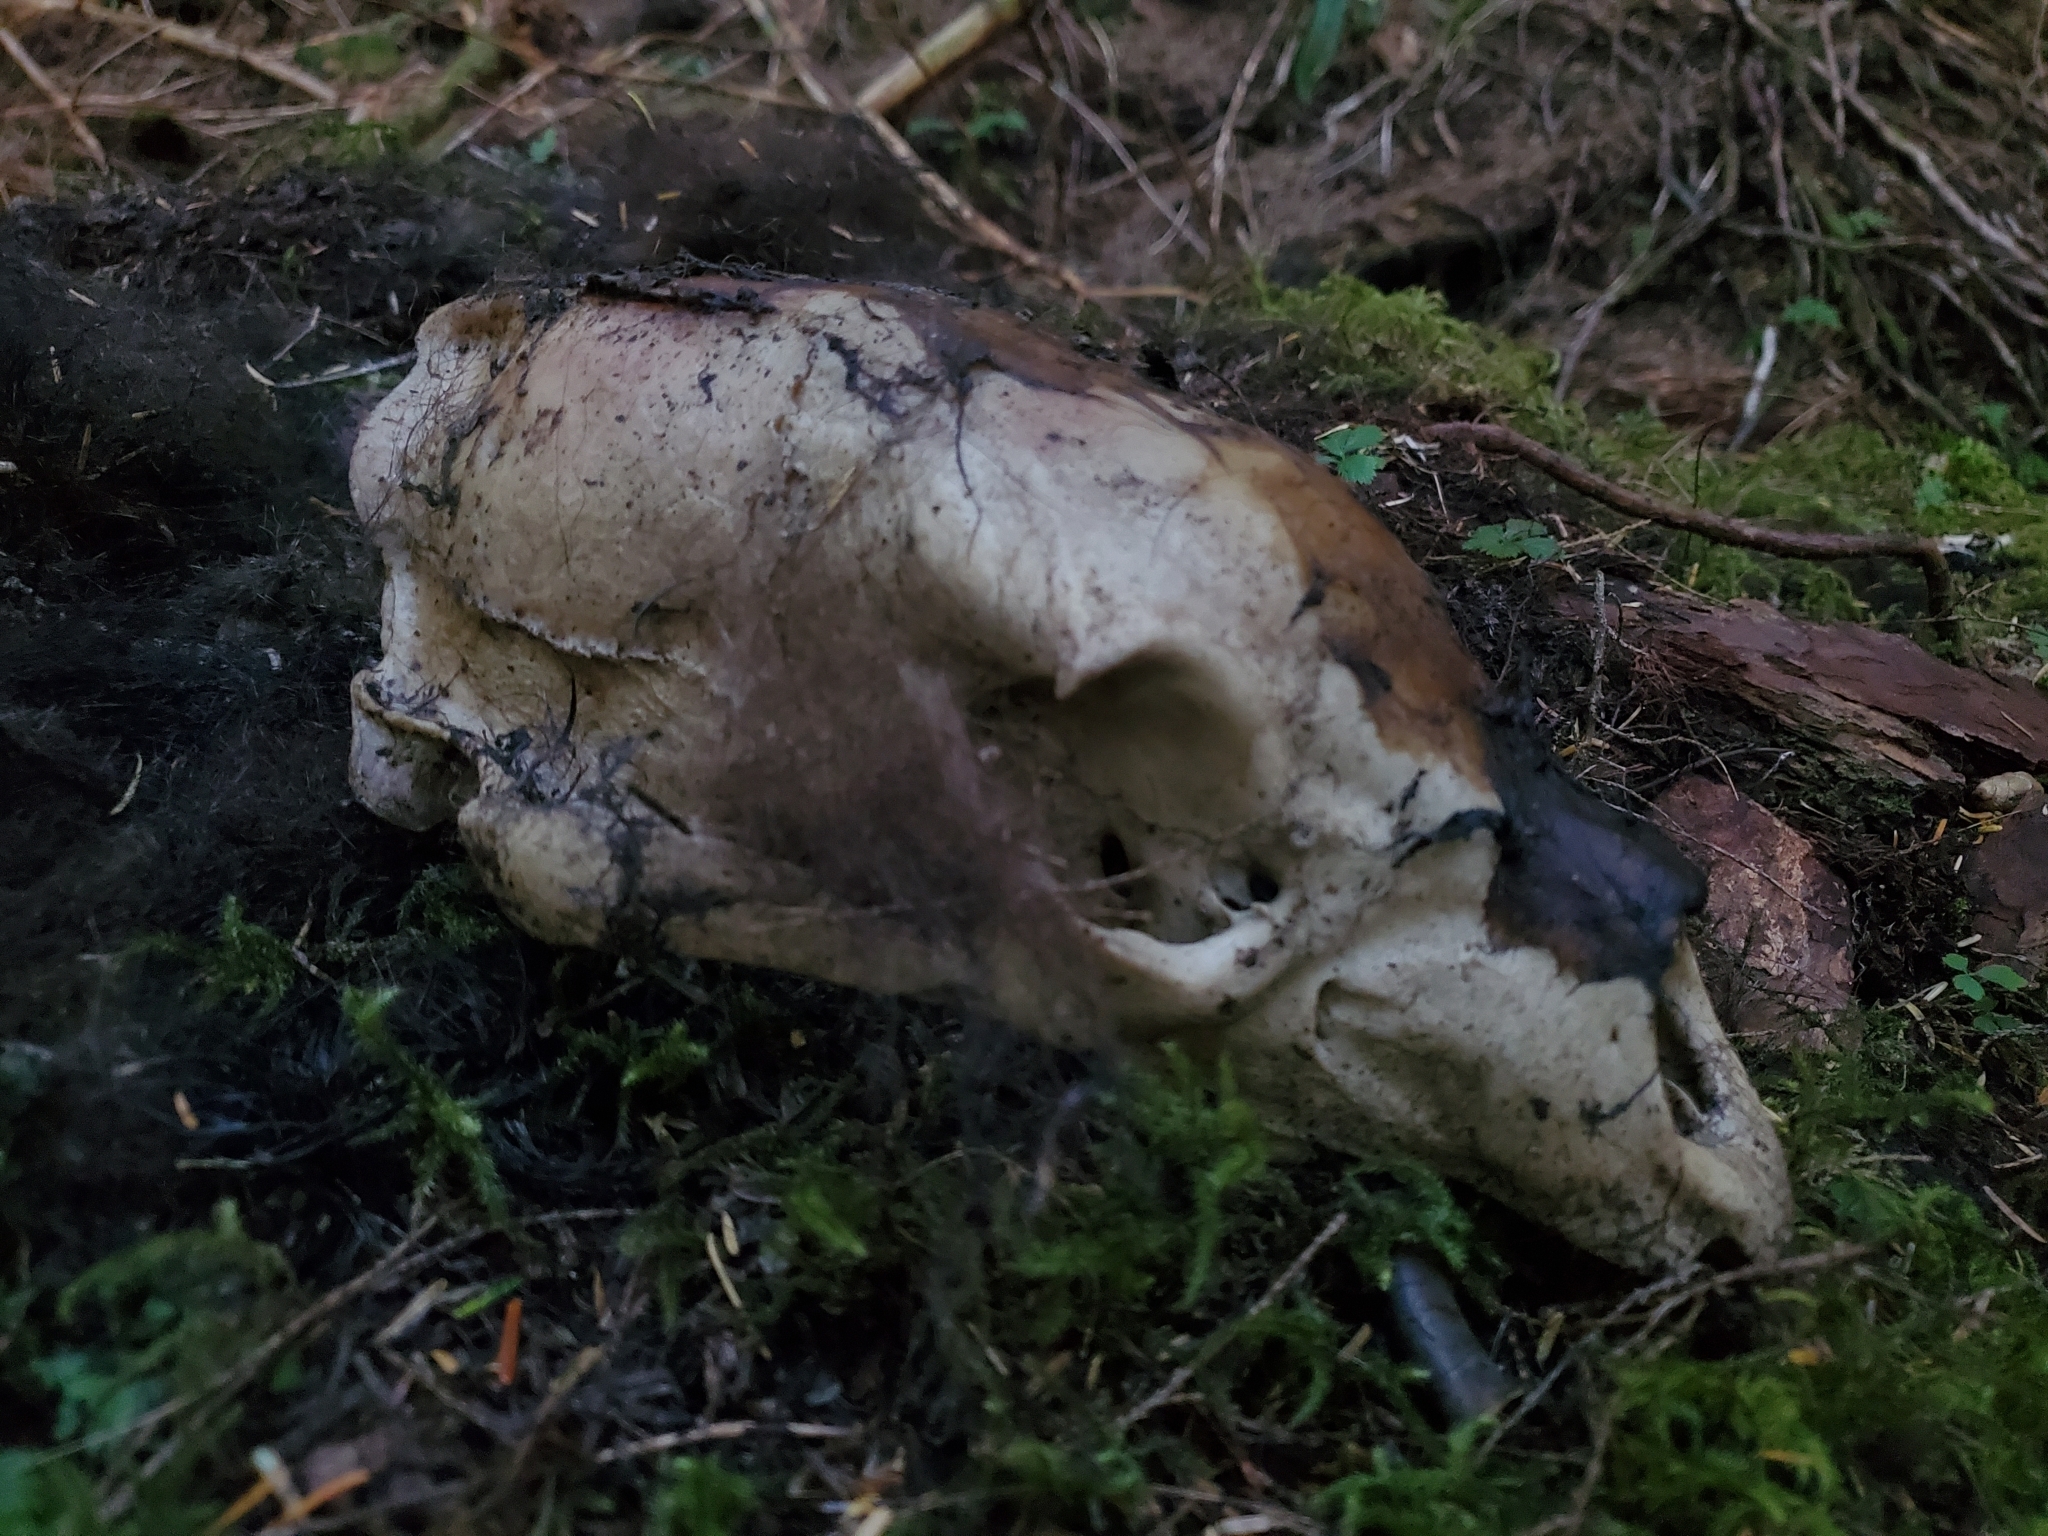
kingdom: Animalia
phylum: Chordata
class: Mammalia
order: Carnivora
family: Ursidae
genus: Ursus
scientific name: Ursus americanus
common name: American black bear
